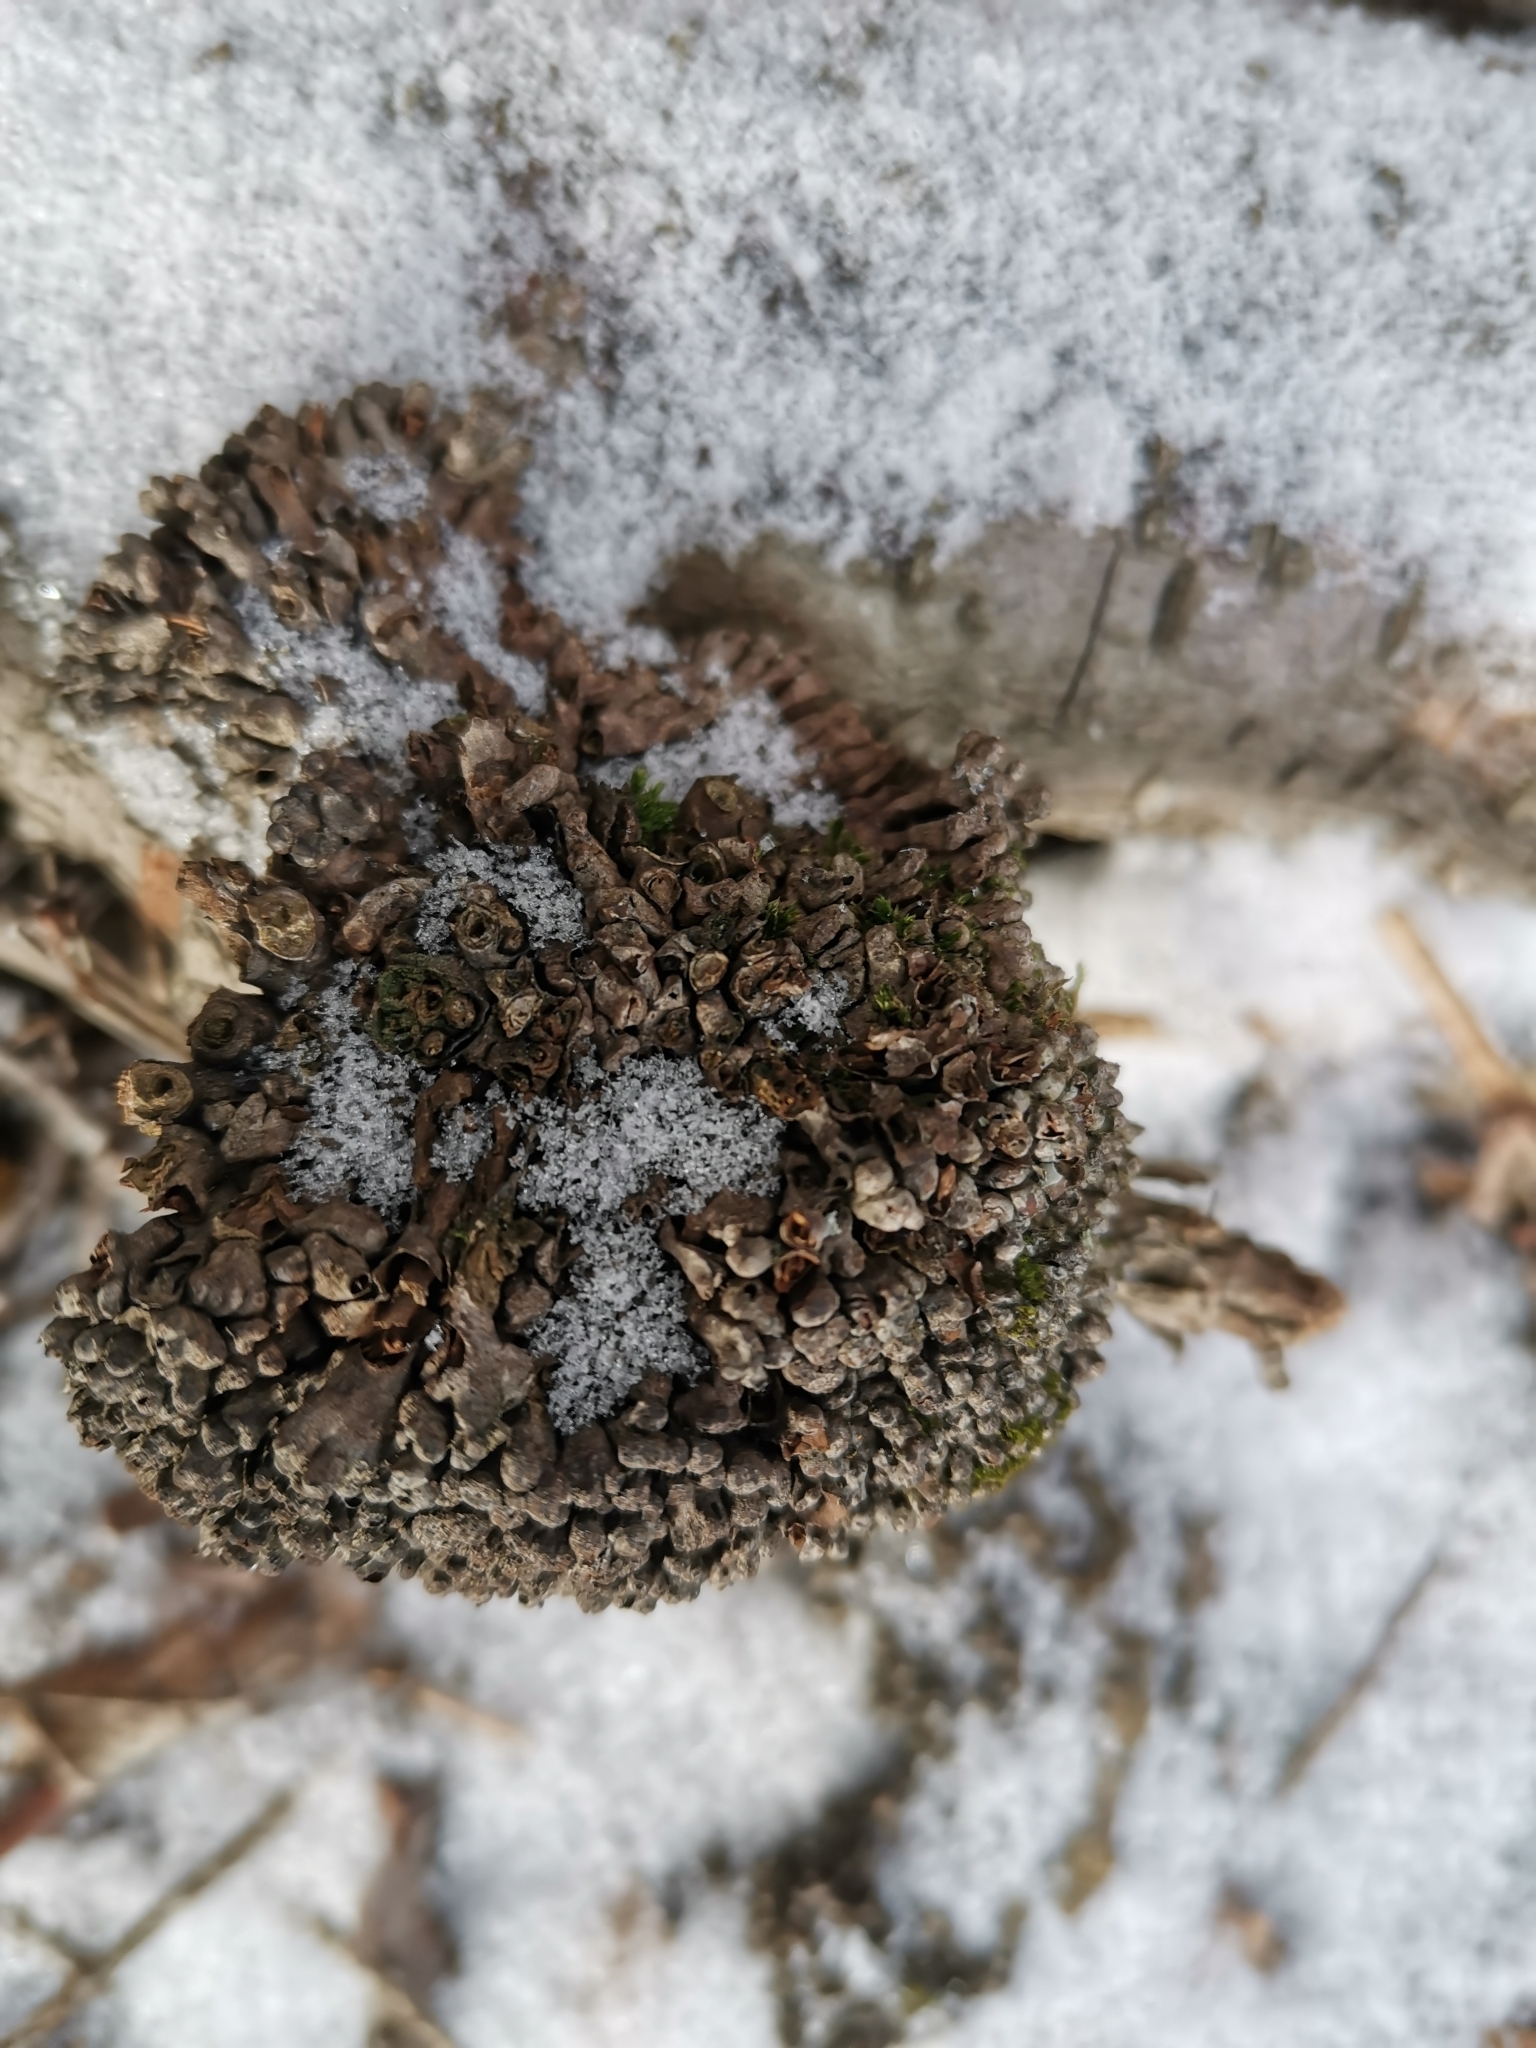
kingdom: Bacteria
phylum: Actinobacteriota
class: Actinomycetia
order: Mycobacteriales
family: Frankiaceae
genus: Frankia
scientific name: Frankia alni
